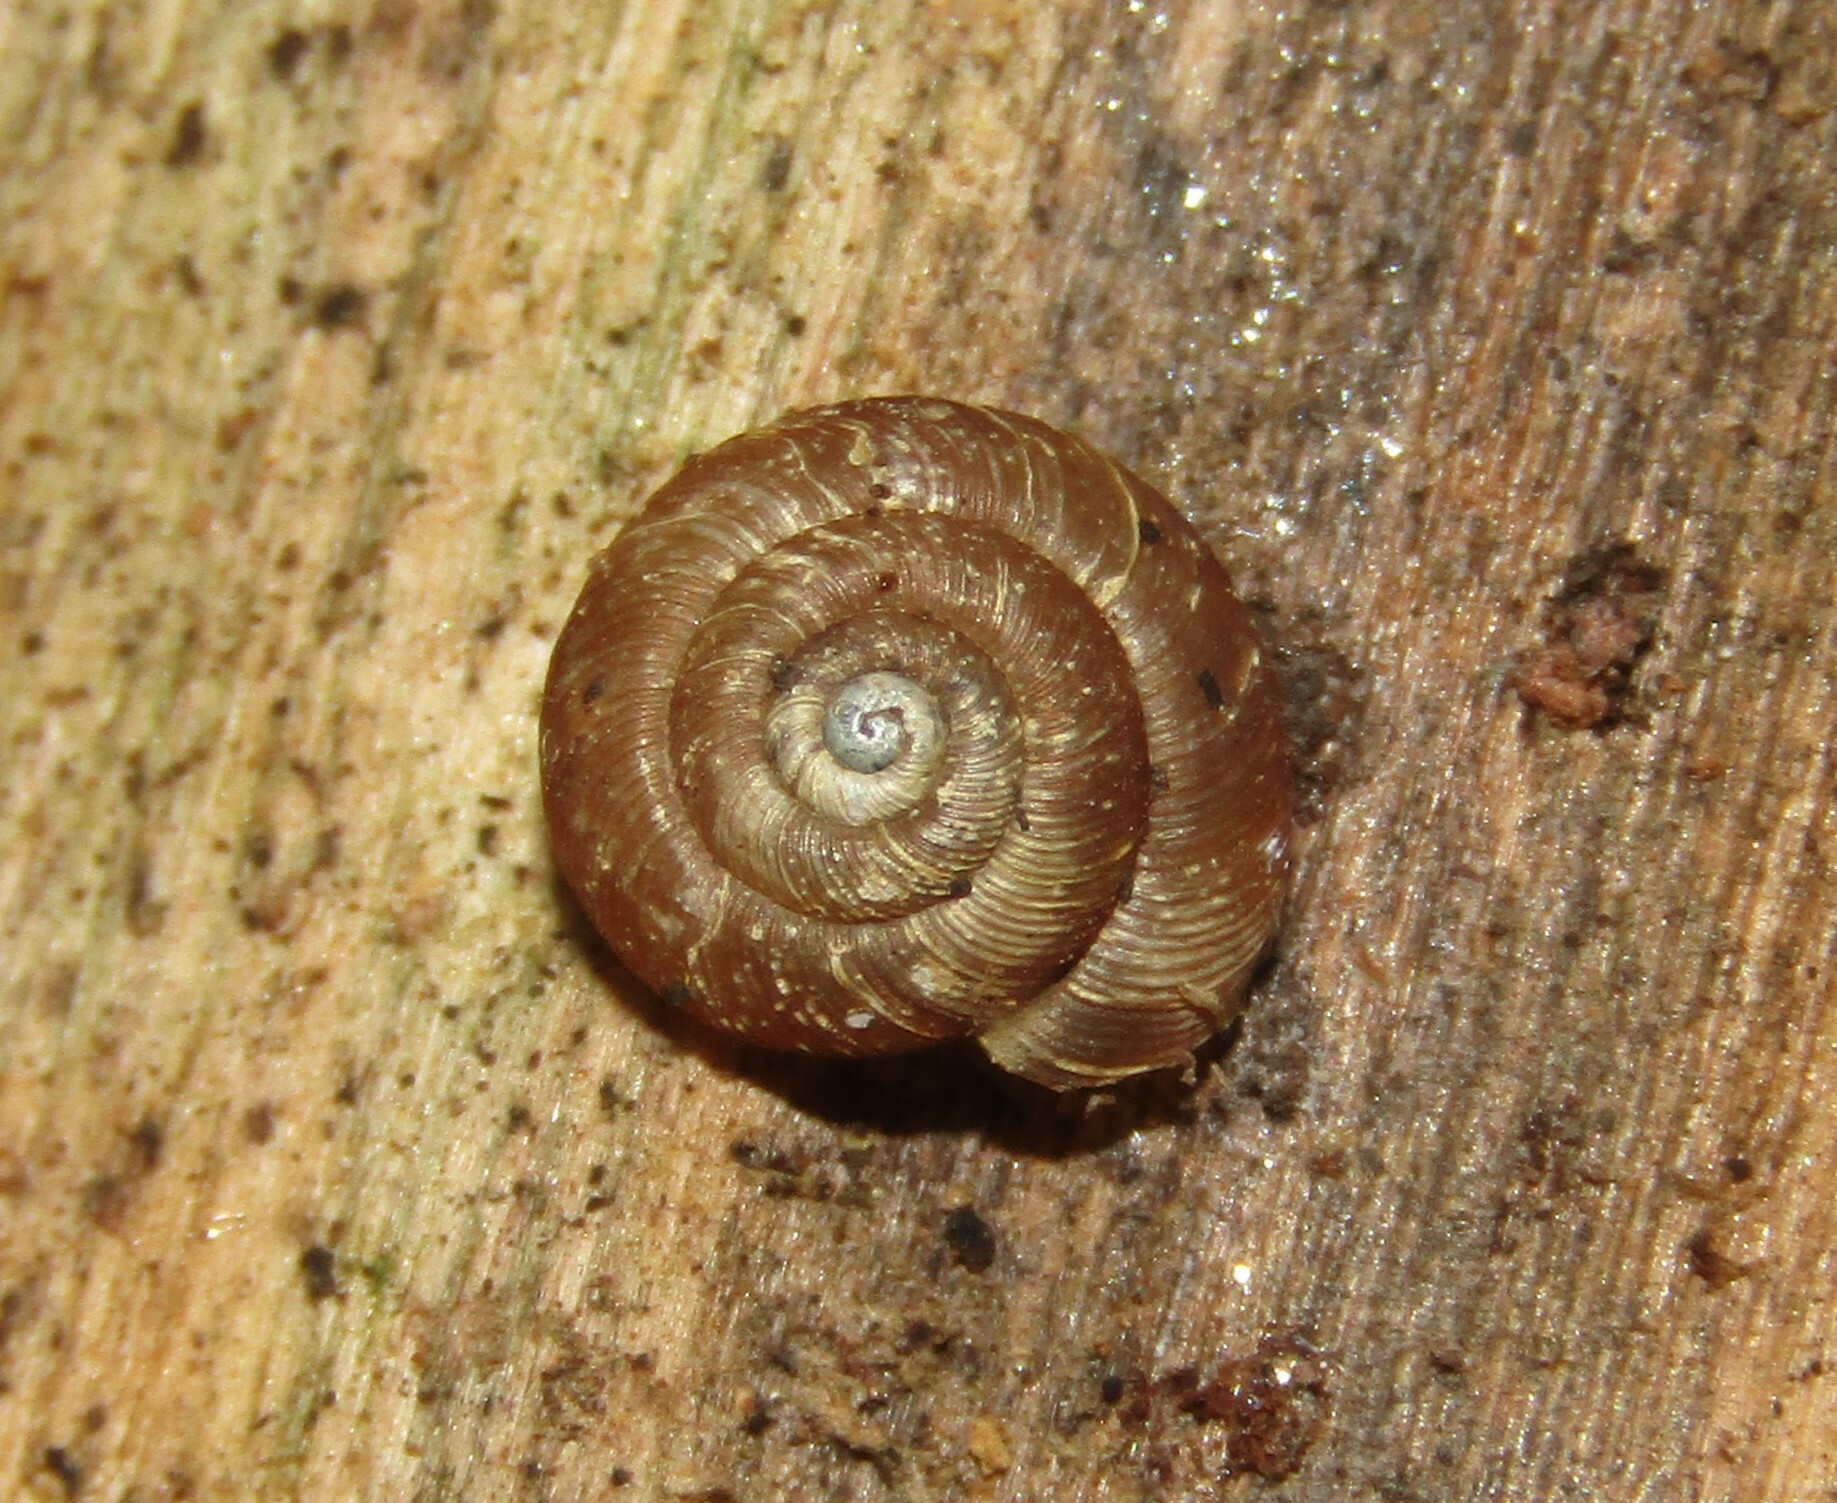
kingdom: Animalia
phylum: Mollusca
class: Gastropoda
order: Stylommatophora
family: Discidae
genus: Discus
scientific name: Discus ruderatus
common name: Brown disc snail
